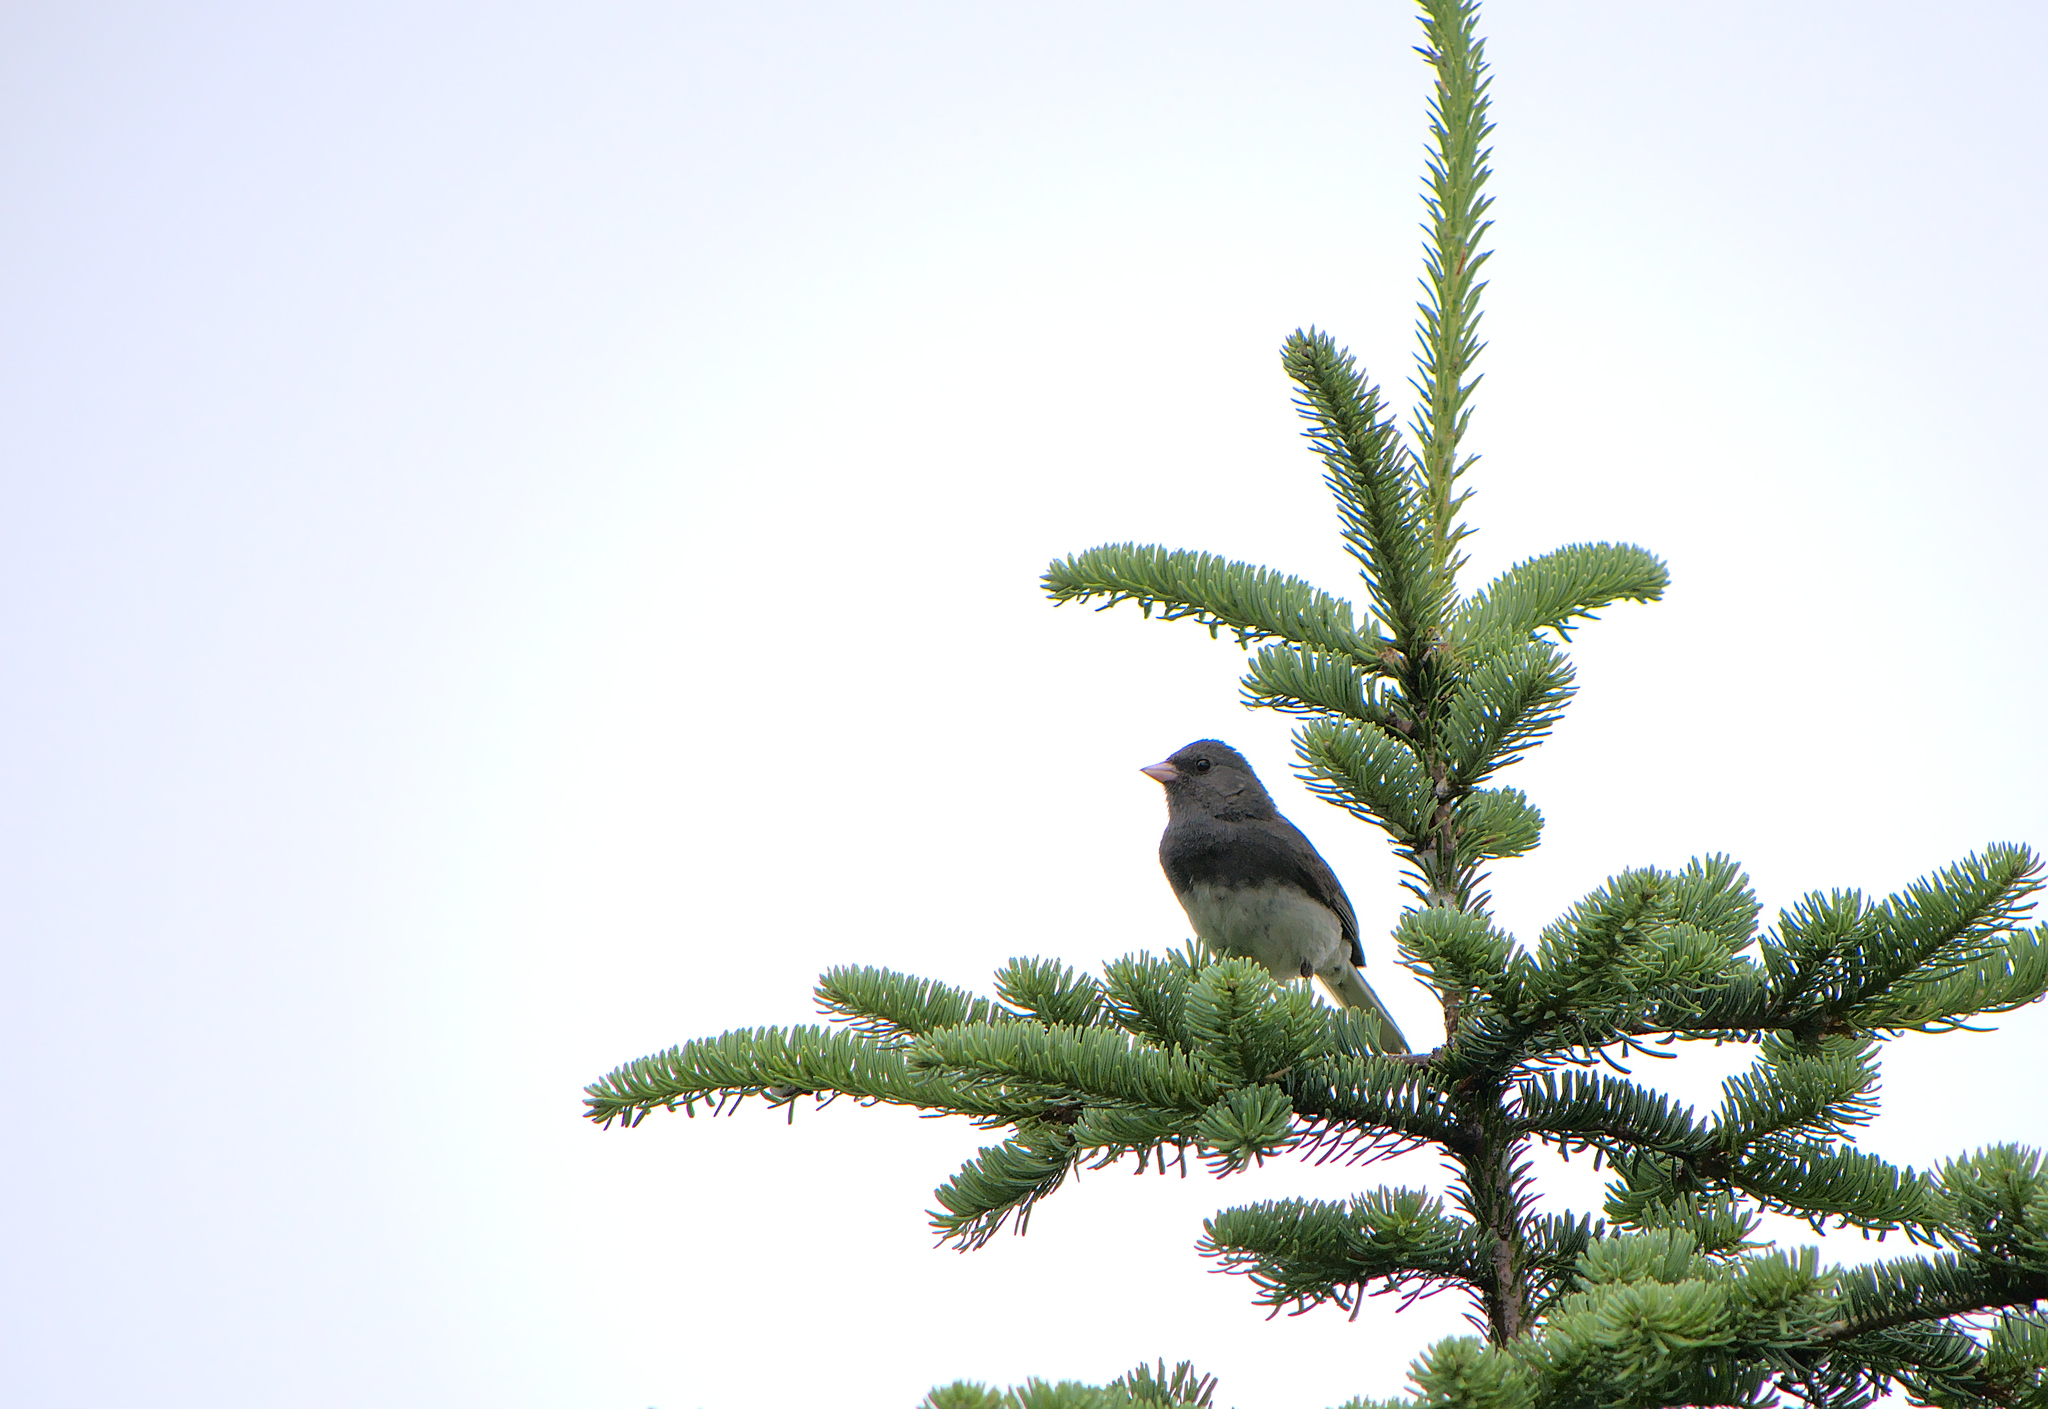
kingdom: Animalia
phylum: Chordata
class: Aves
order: Passeriformes
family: Passerellidae
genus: Junco
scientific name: Junco hyemalis
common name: Dark-eyed junco
